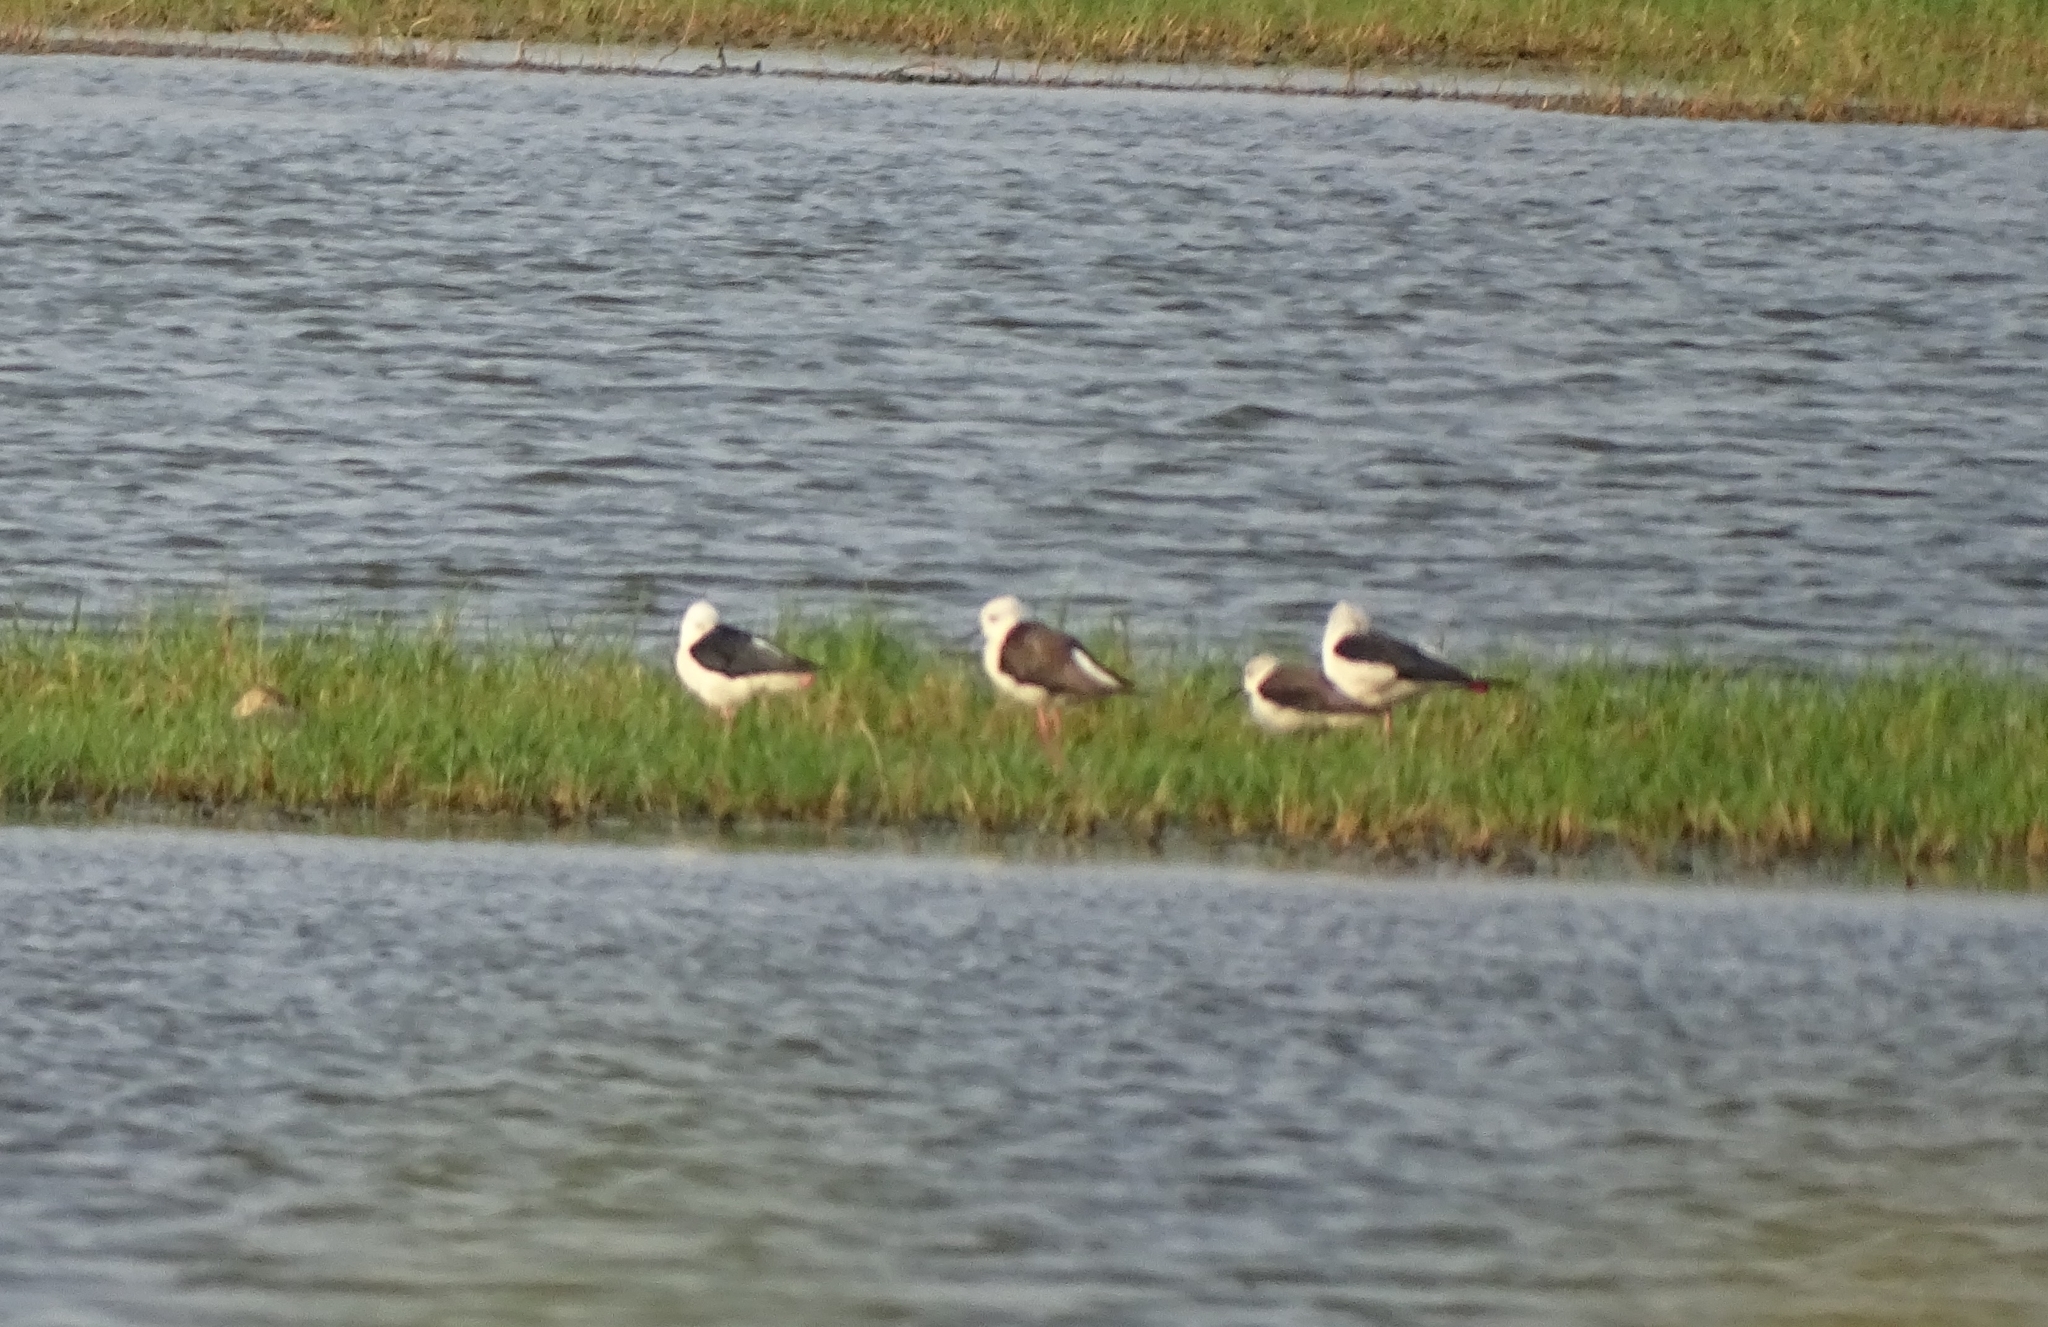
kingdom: Animalia
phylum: Chordata
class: Aves
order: Charadriiformes
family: Recurvirostridae
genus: Himantopus
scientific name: Himantopus himantopus
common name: Black-winged stilt
